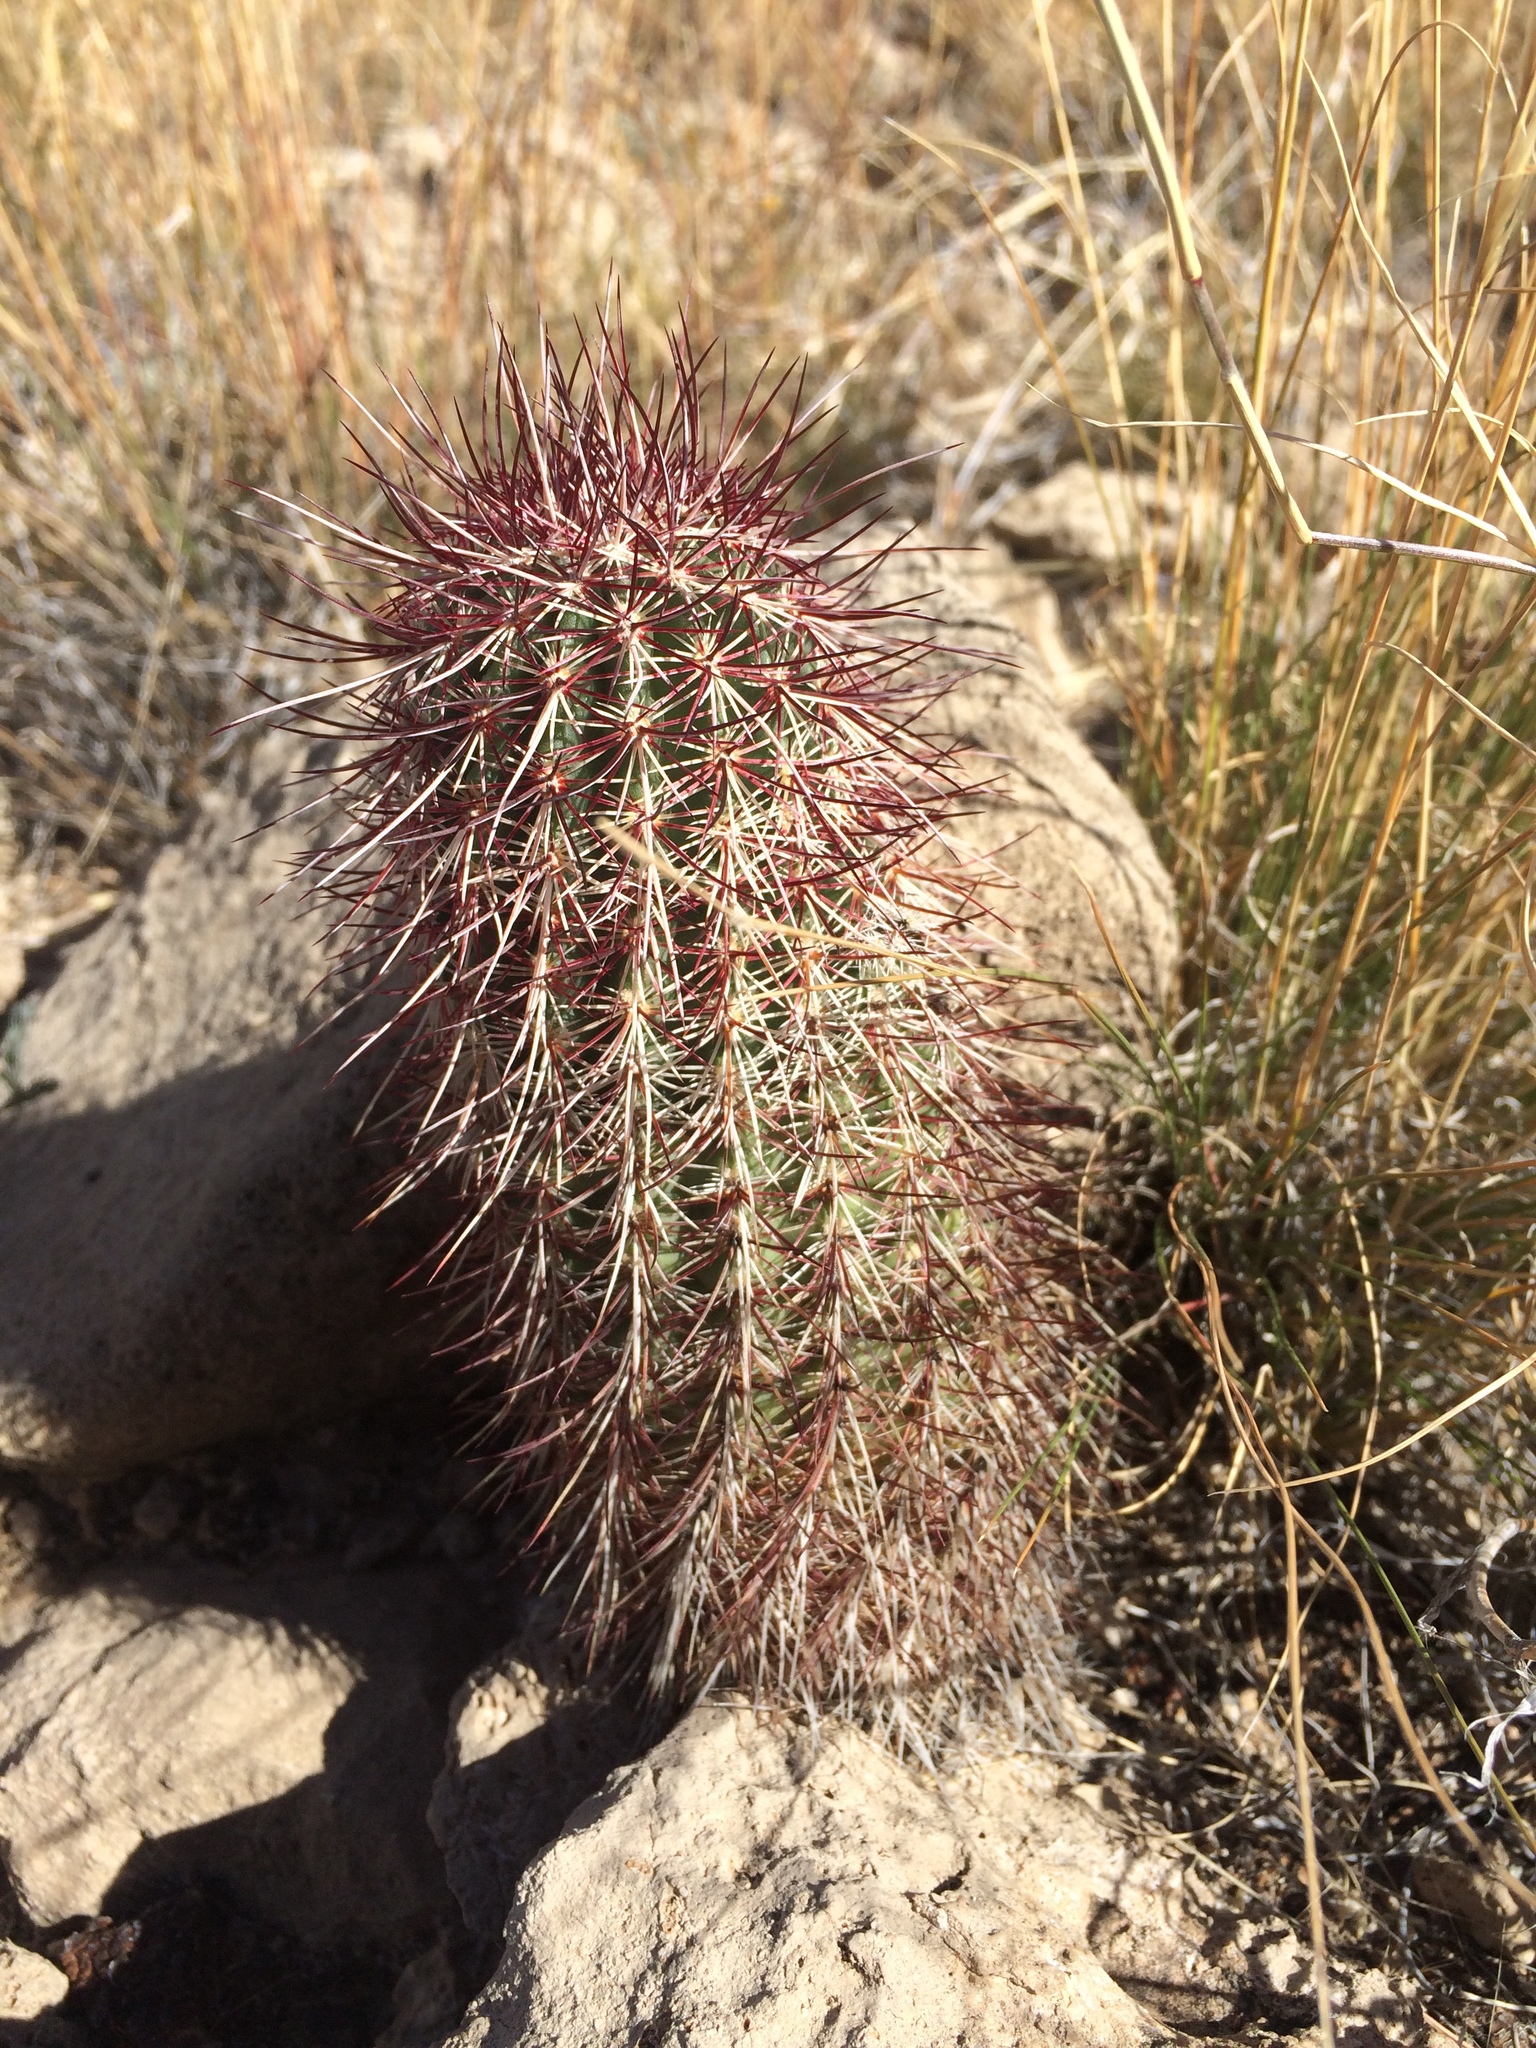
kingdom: Plantae
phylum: Tracheophyta
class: Magnoliopsida
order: Caryophyllales
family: Cactaceae
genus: Echinocereus
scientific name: Echinocereus viridiflorus
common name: Nylon hedgehog cactus
